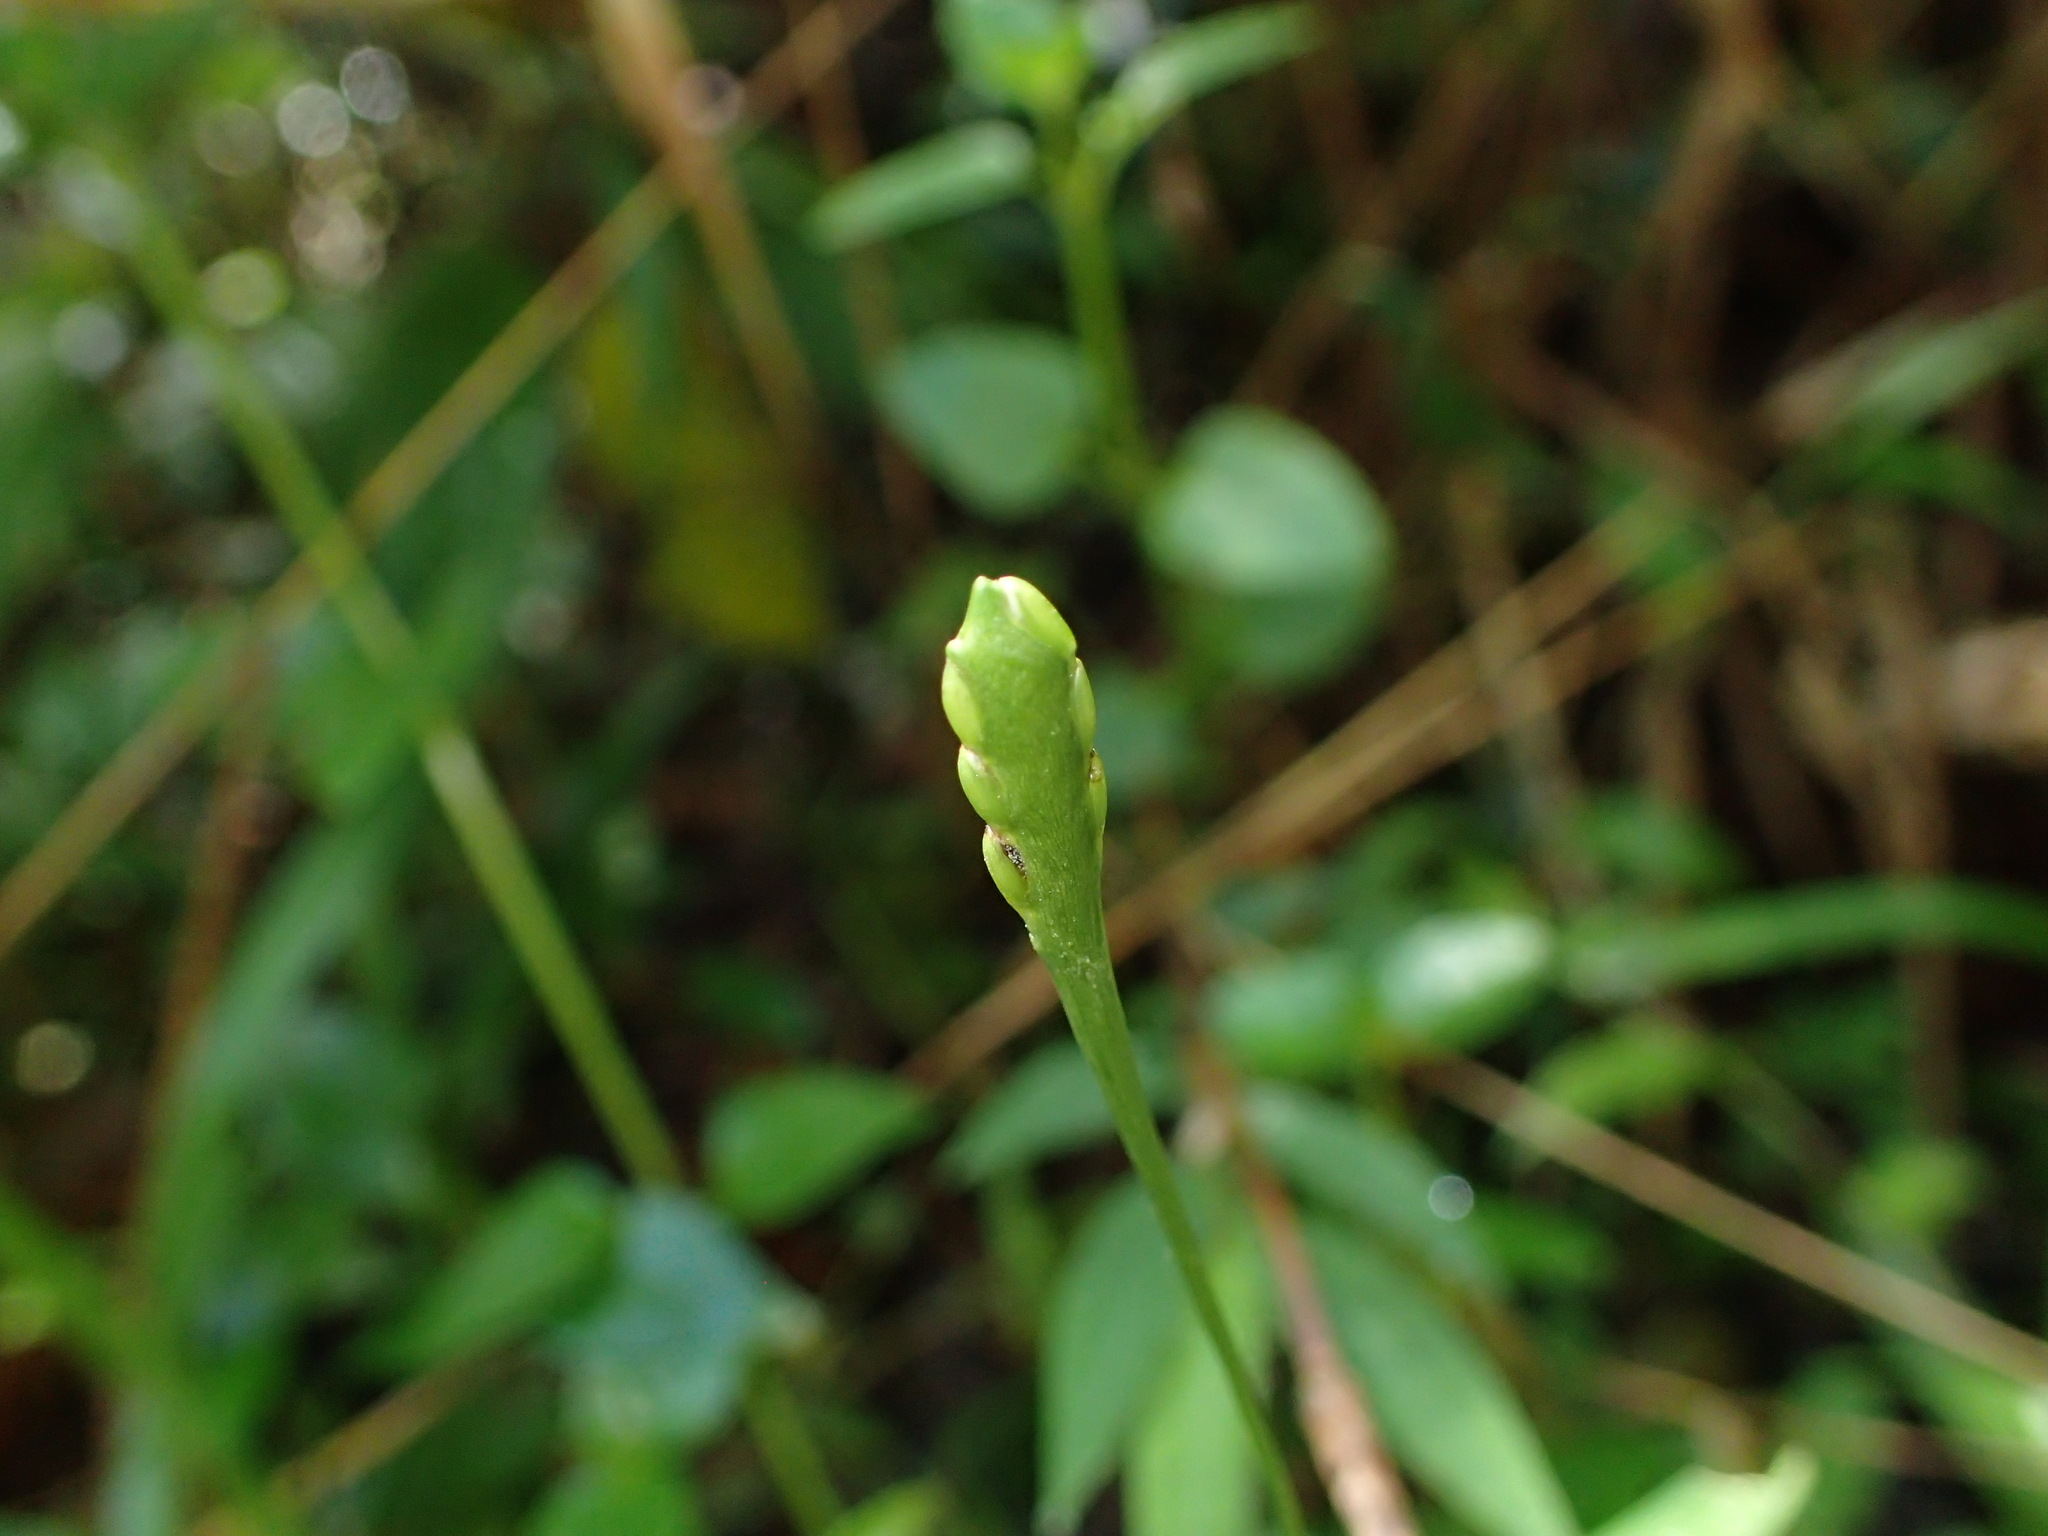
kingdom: Plantae
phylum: Tracheophyta
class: Liliopsida
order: Poales
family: Poaceae
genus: Stenotaphrum
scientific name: Stenotaphrum oostachyum
